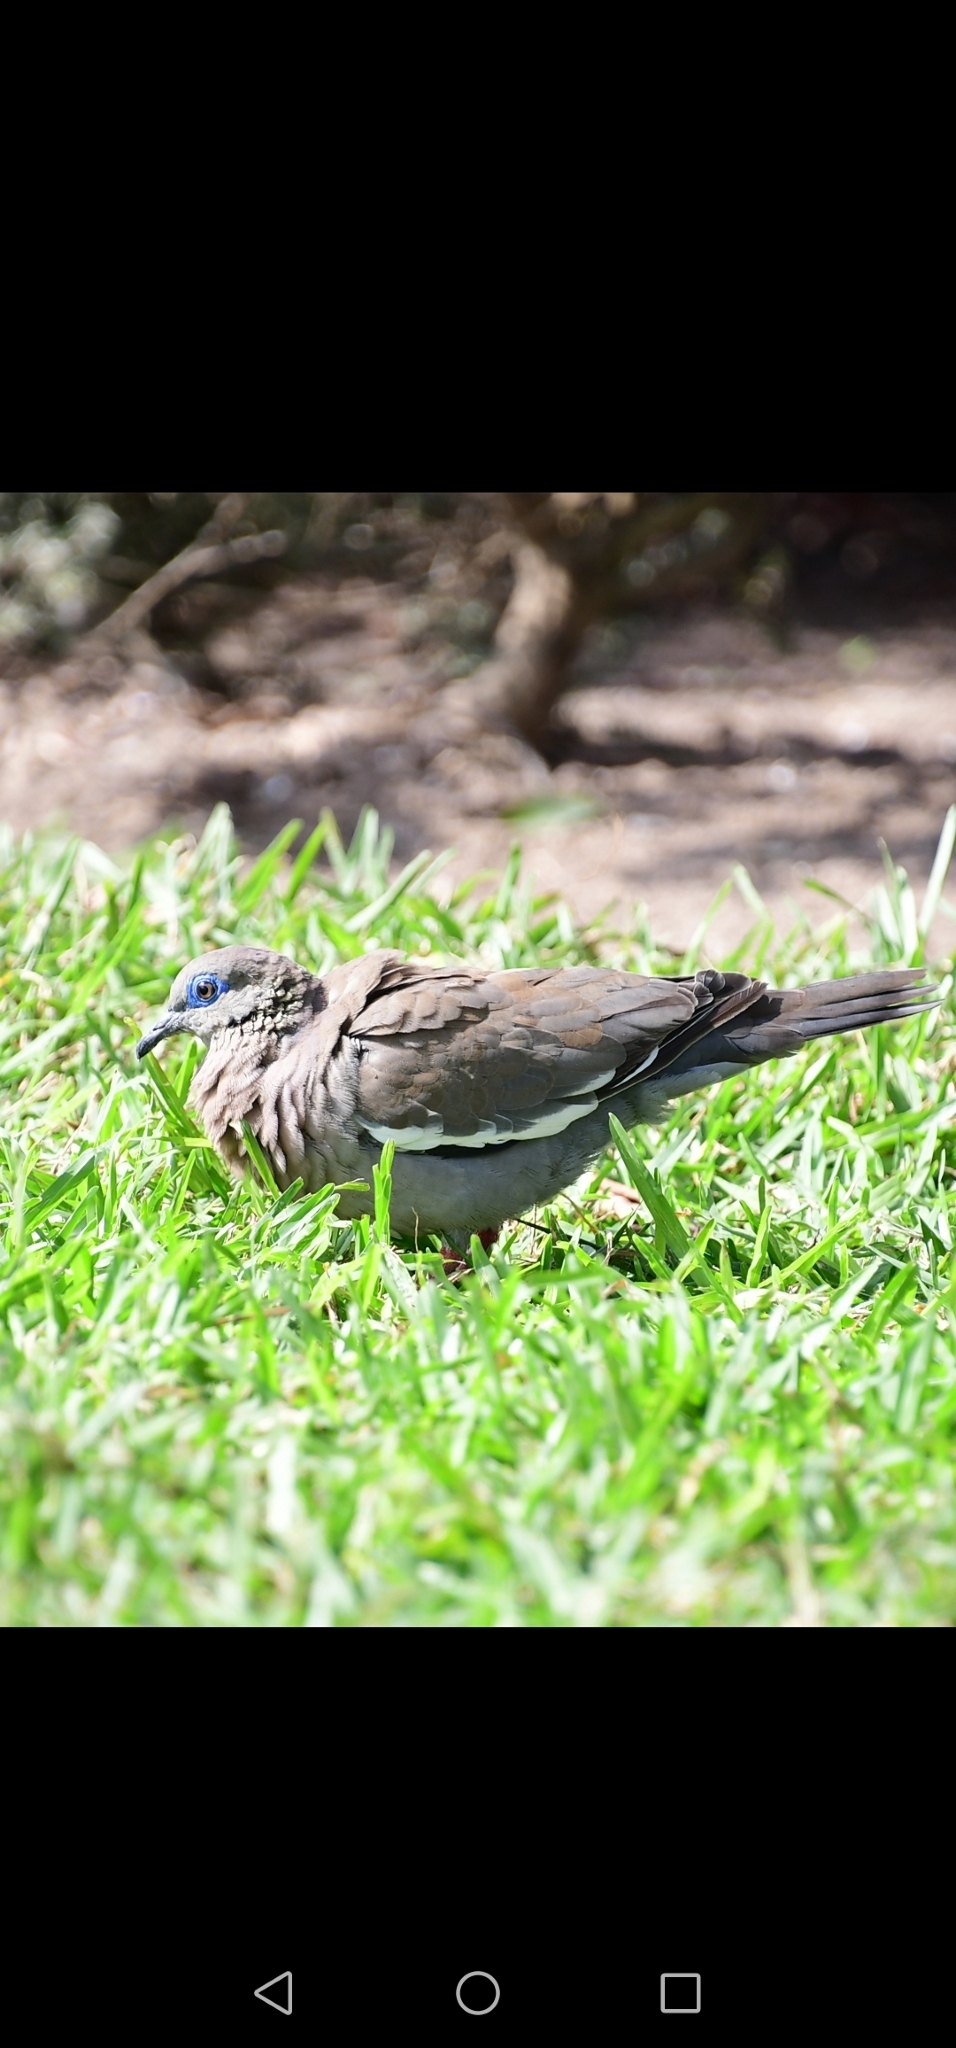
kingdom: Animalia
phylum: Chordata
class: Aves
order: Columbiformes
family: Columbidae
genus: Zenaida
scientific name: Zenaida meloda
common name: West peruvian dove
